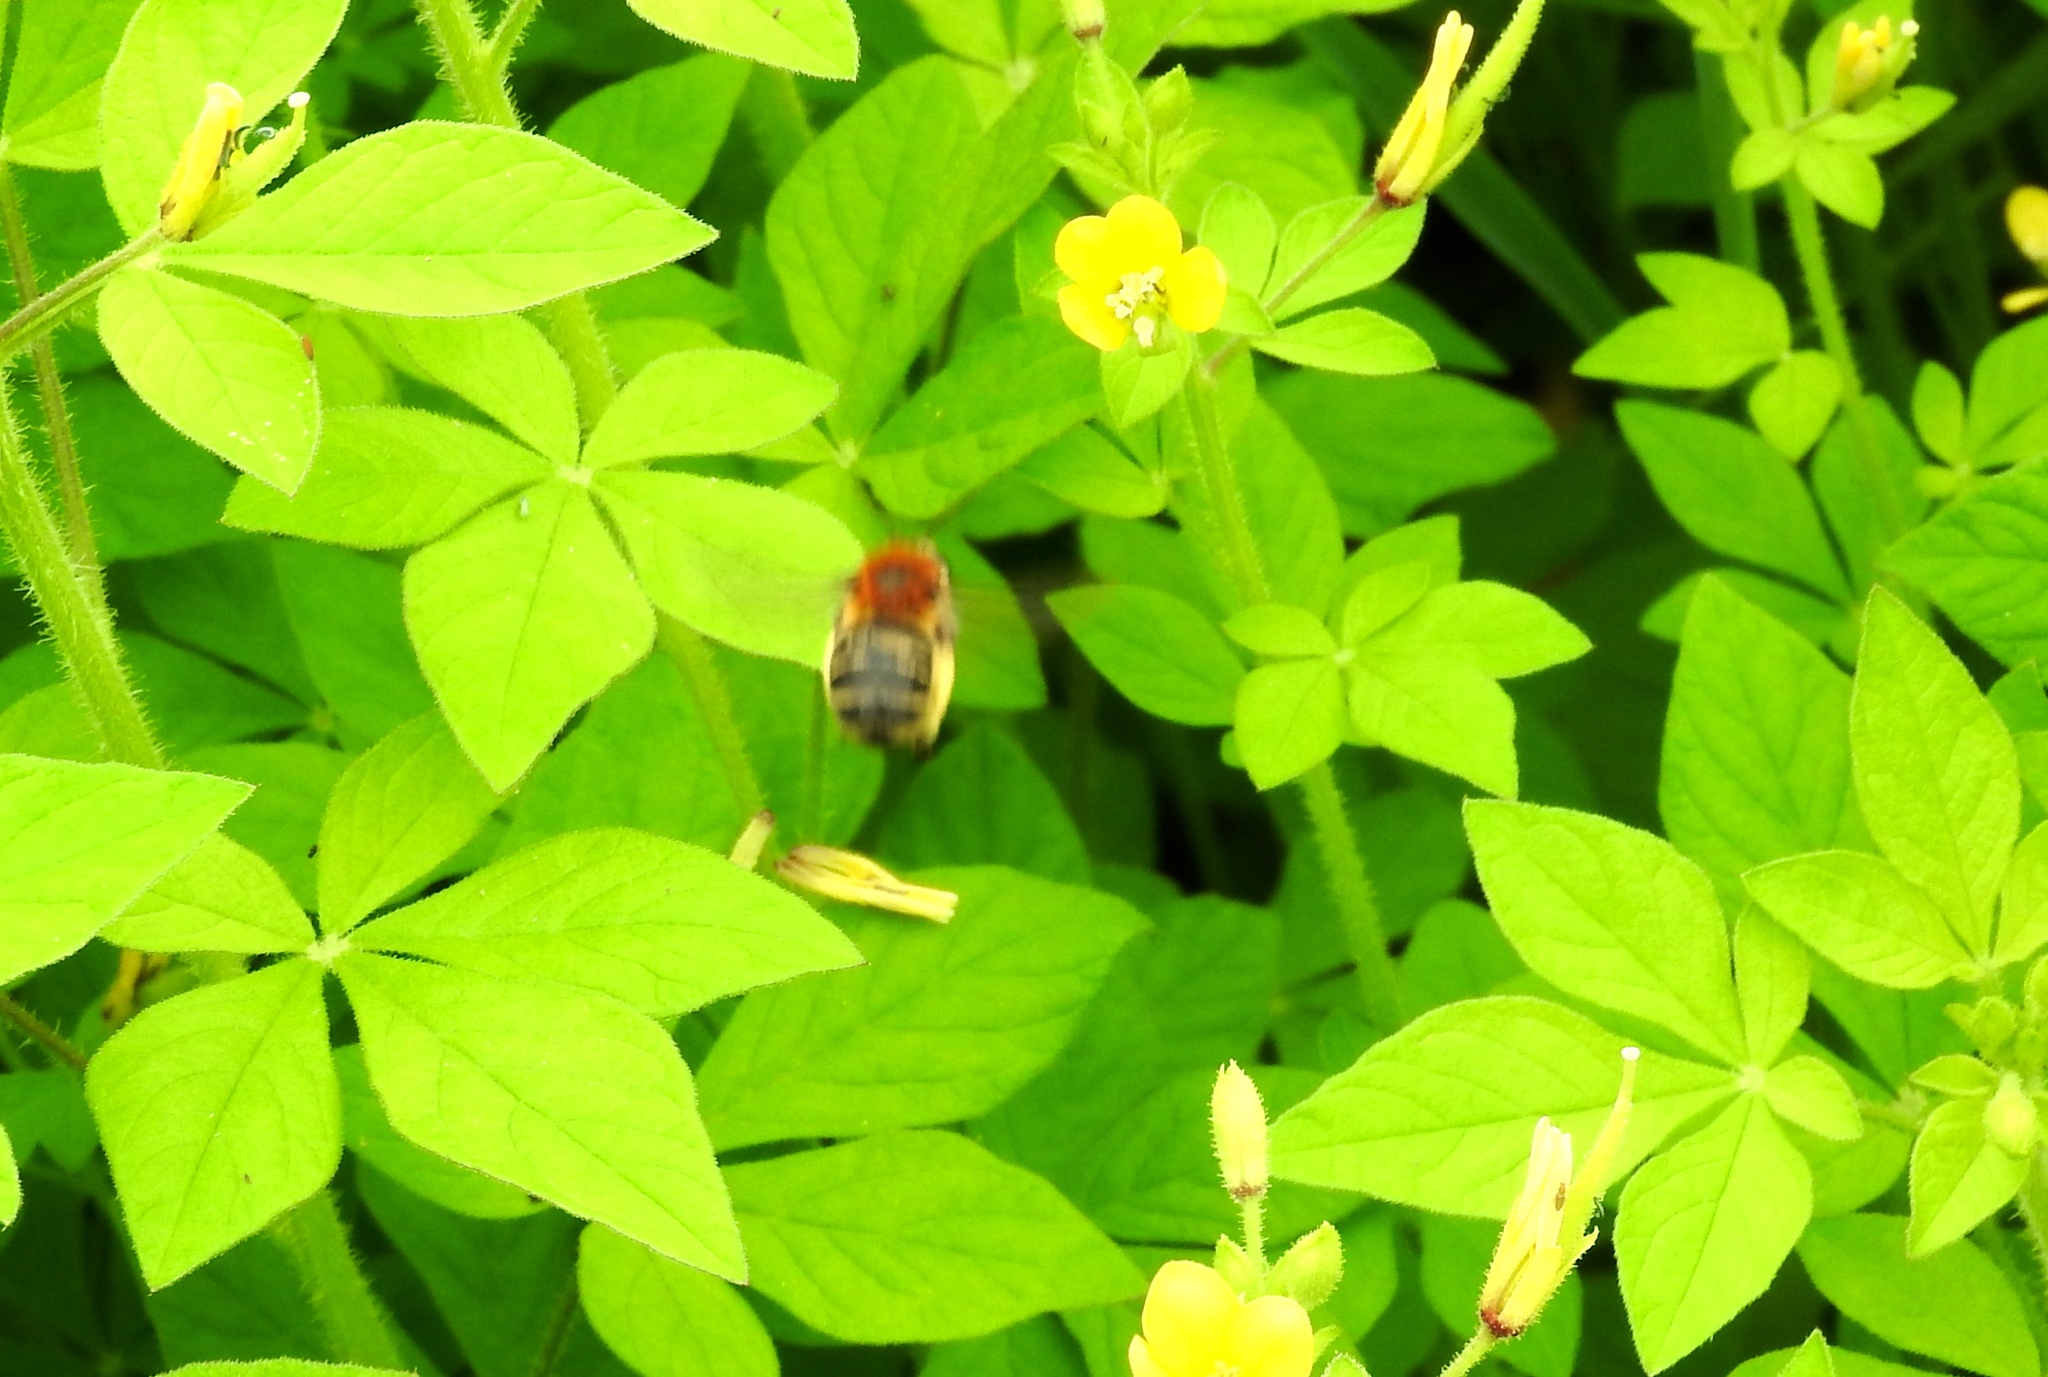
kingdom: Animalia
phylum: Arthropoda
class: Insecta
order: Hymenoptera
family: Apidae
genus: Melissodes
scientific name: Melissodes
